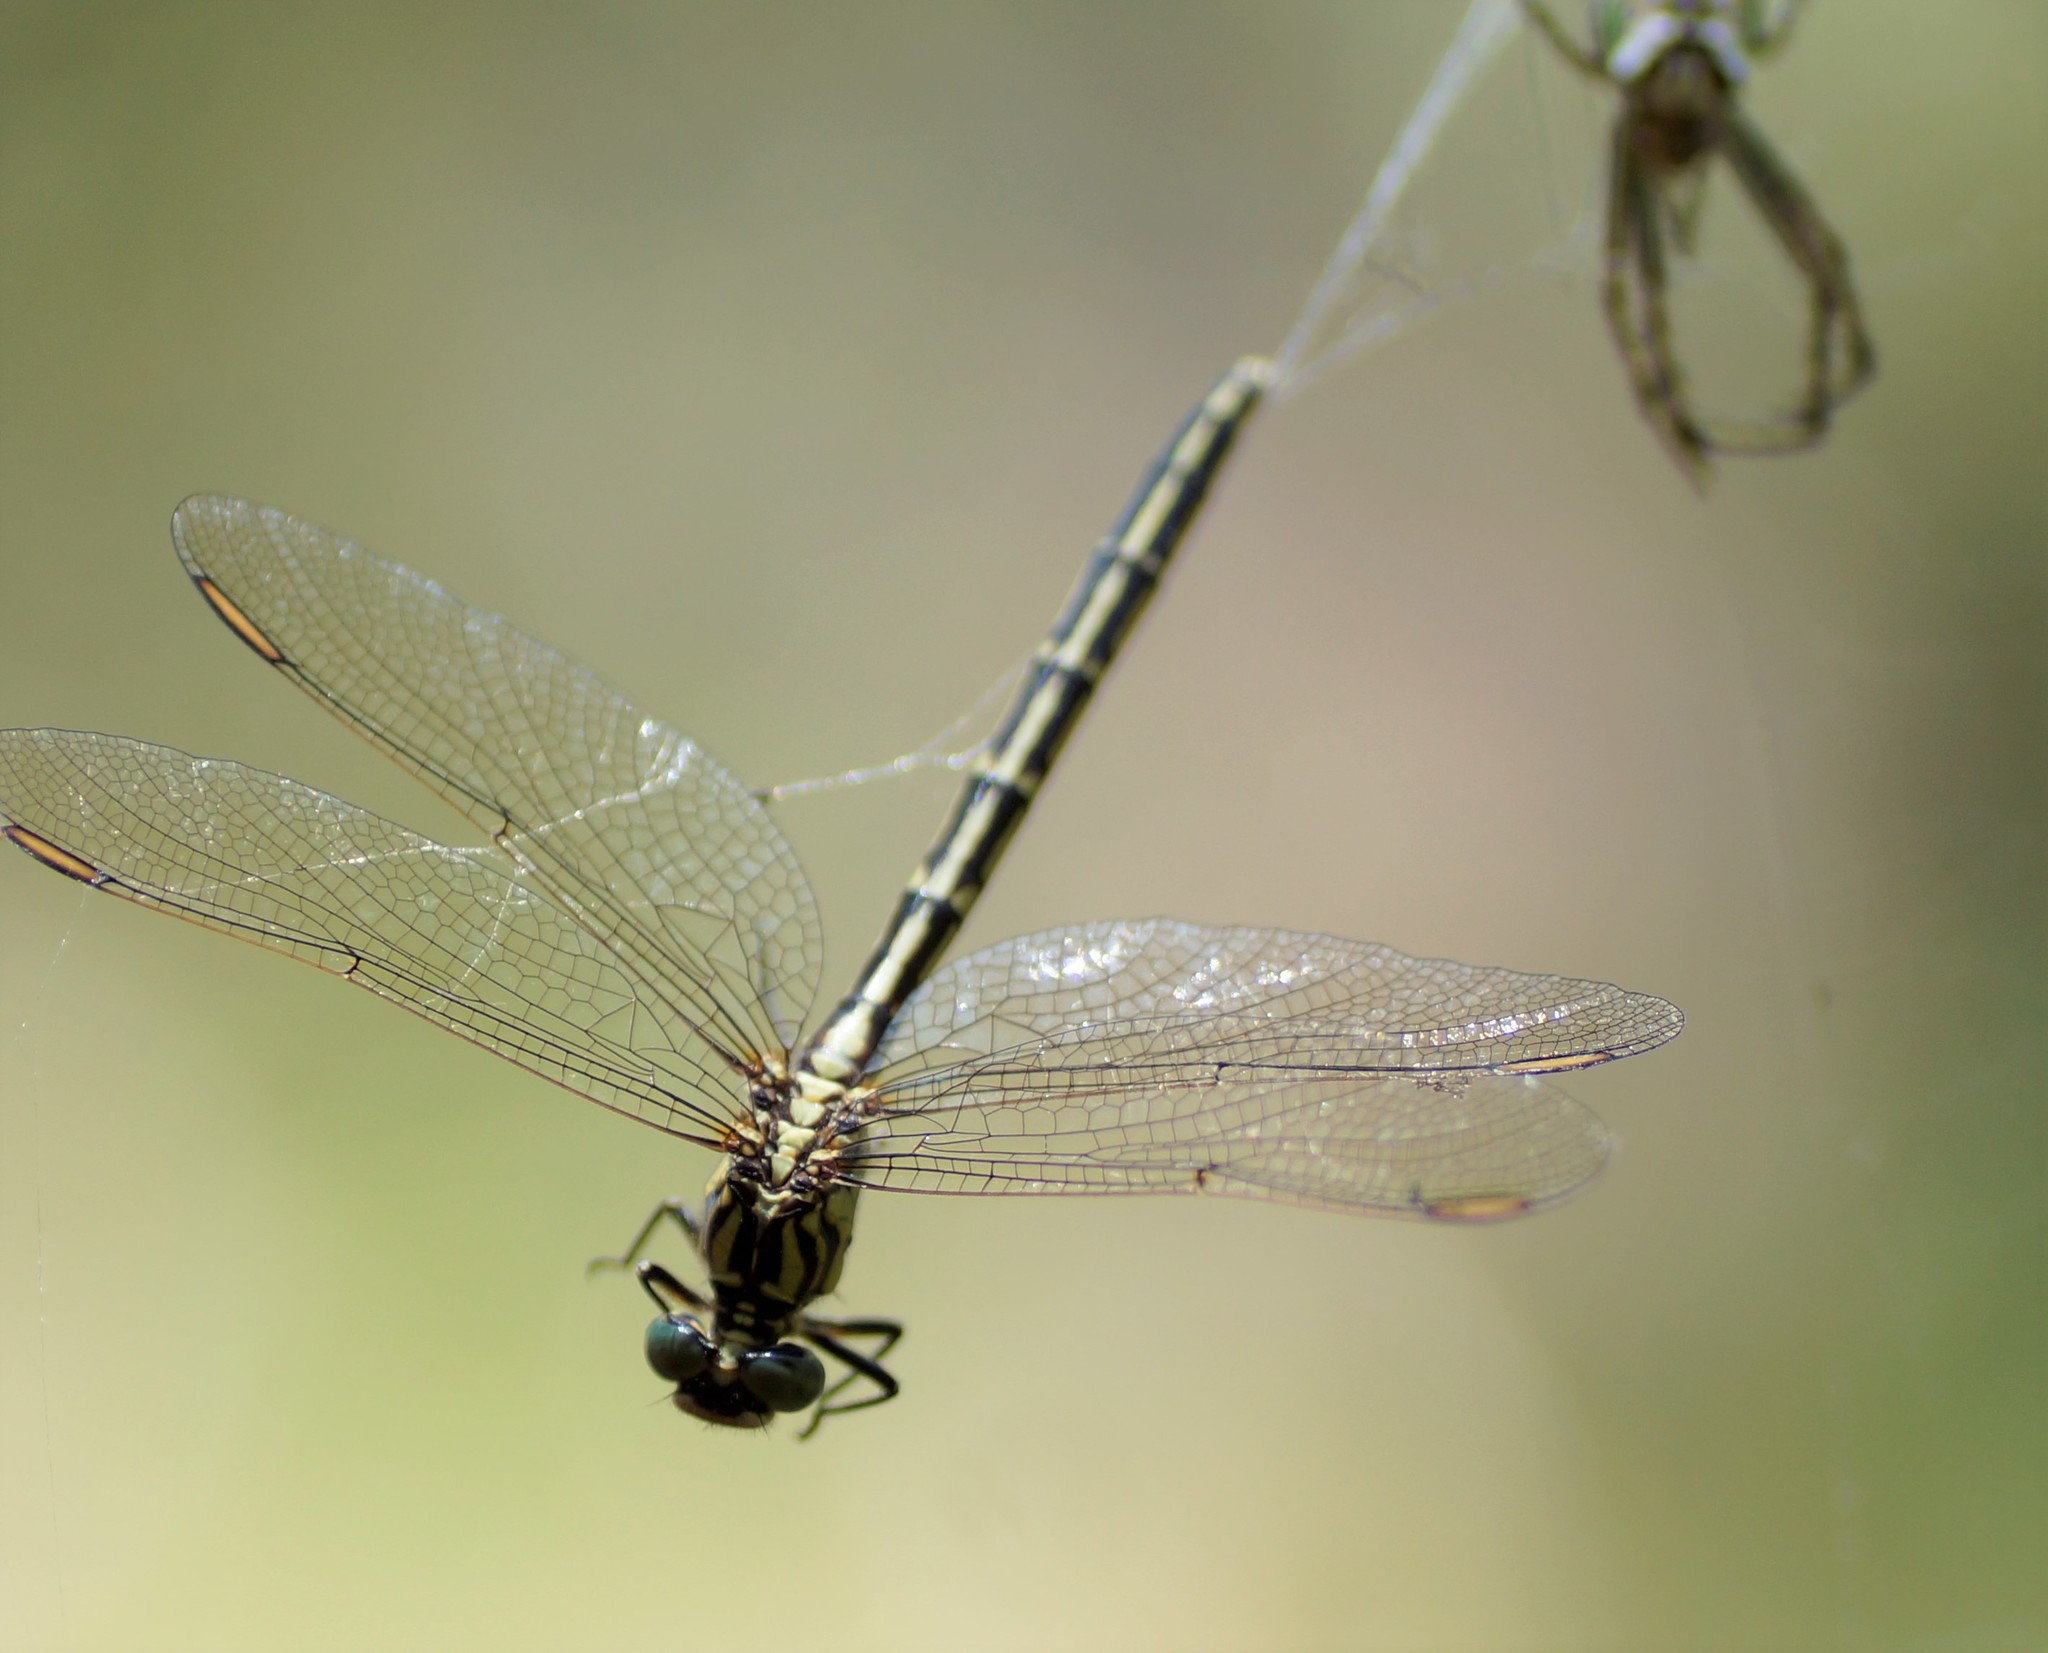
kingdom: Animalia
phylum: Arthropoda
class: Insecta
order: Odonata
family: Gomphidae
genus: Austrogomphus
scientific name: Austrogomphus guerini
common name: Yellow-striped hunter
